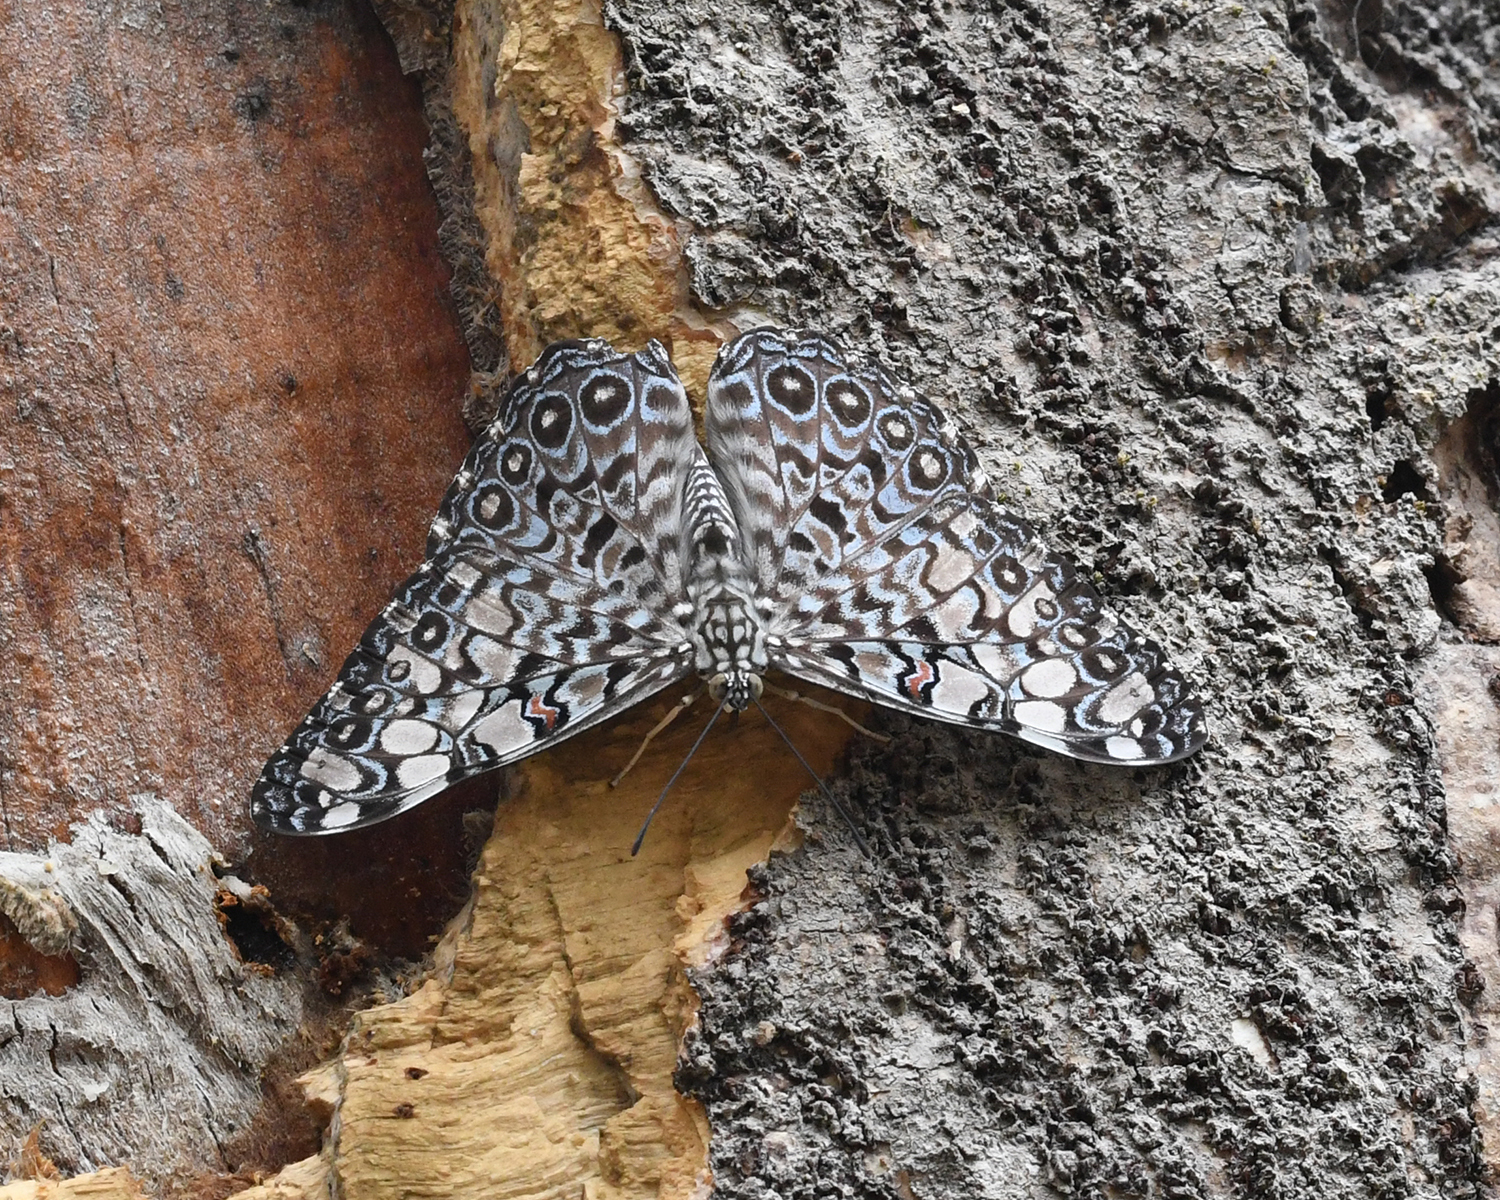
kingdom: Animalia
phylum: Arthropoda
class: Insecta
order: Lepidoptera
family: Nymphalidae
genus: Hamadryas
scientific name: Hamadryas feronia
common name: Variable cracker
